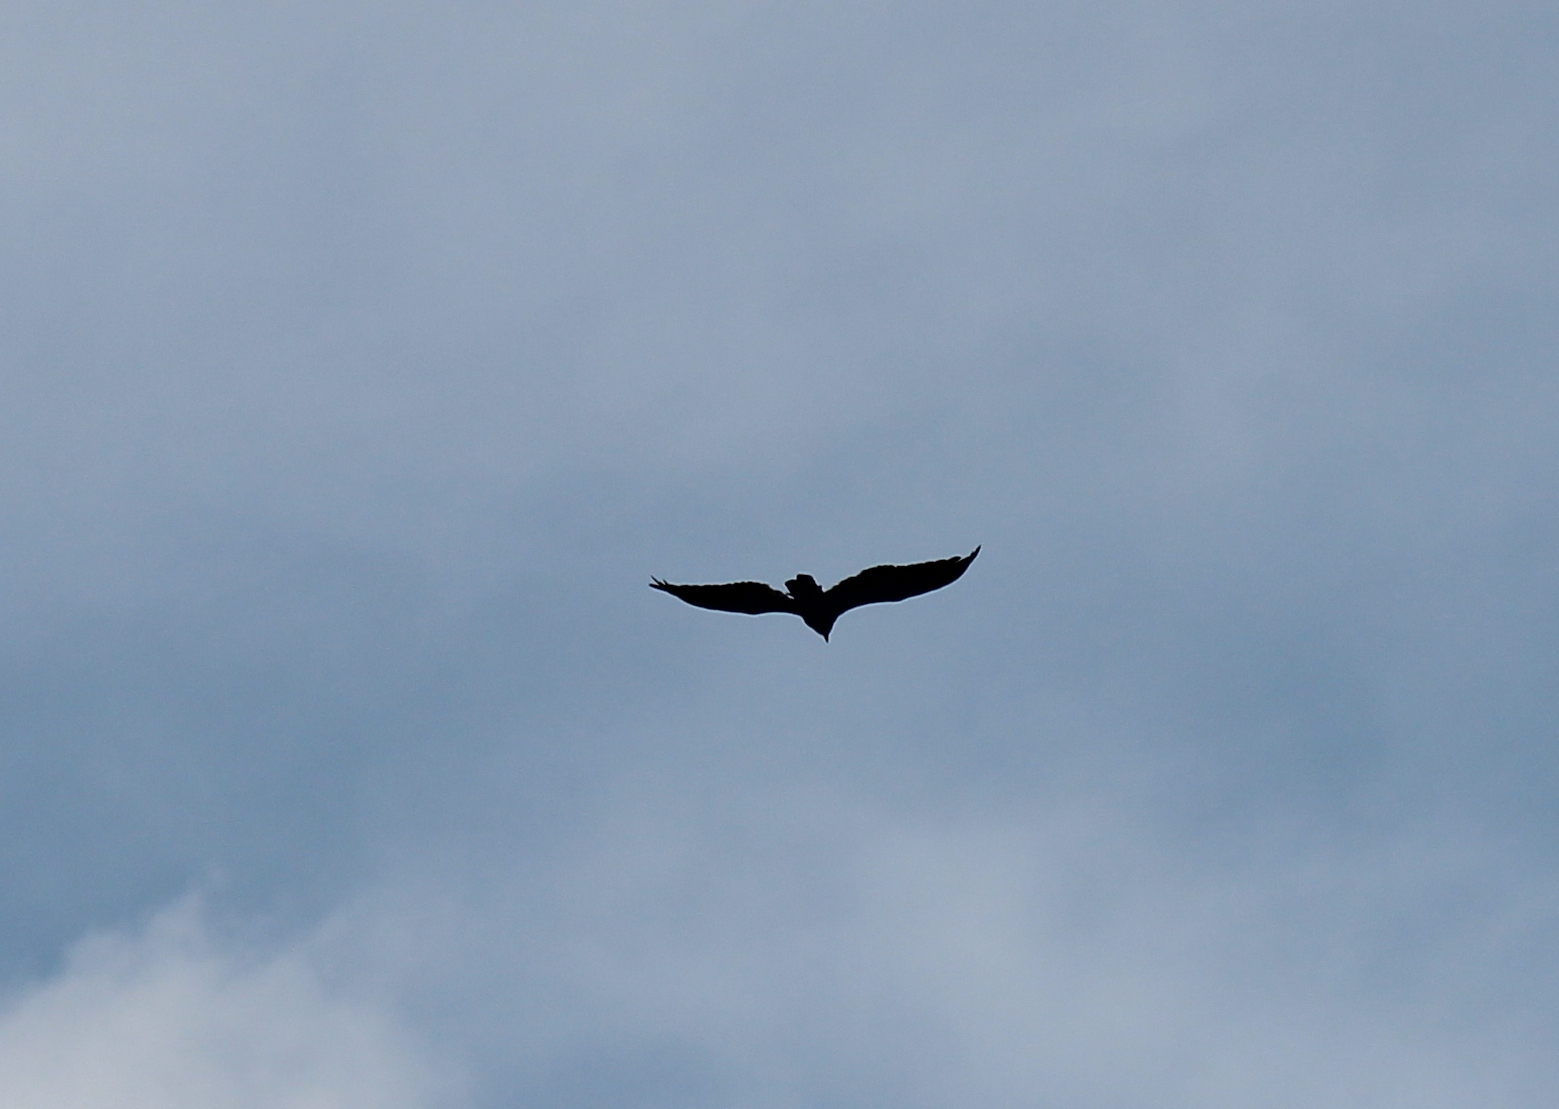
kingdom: Animalia
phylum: Chordata
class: Aves
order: Accipitriformes
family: Cathartidae
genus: Cathartes
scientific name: Cathartes aura
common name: Turkey vulture
